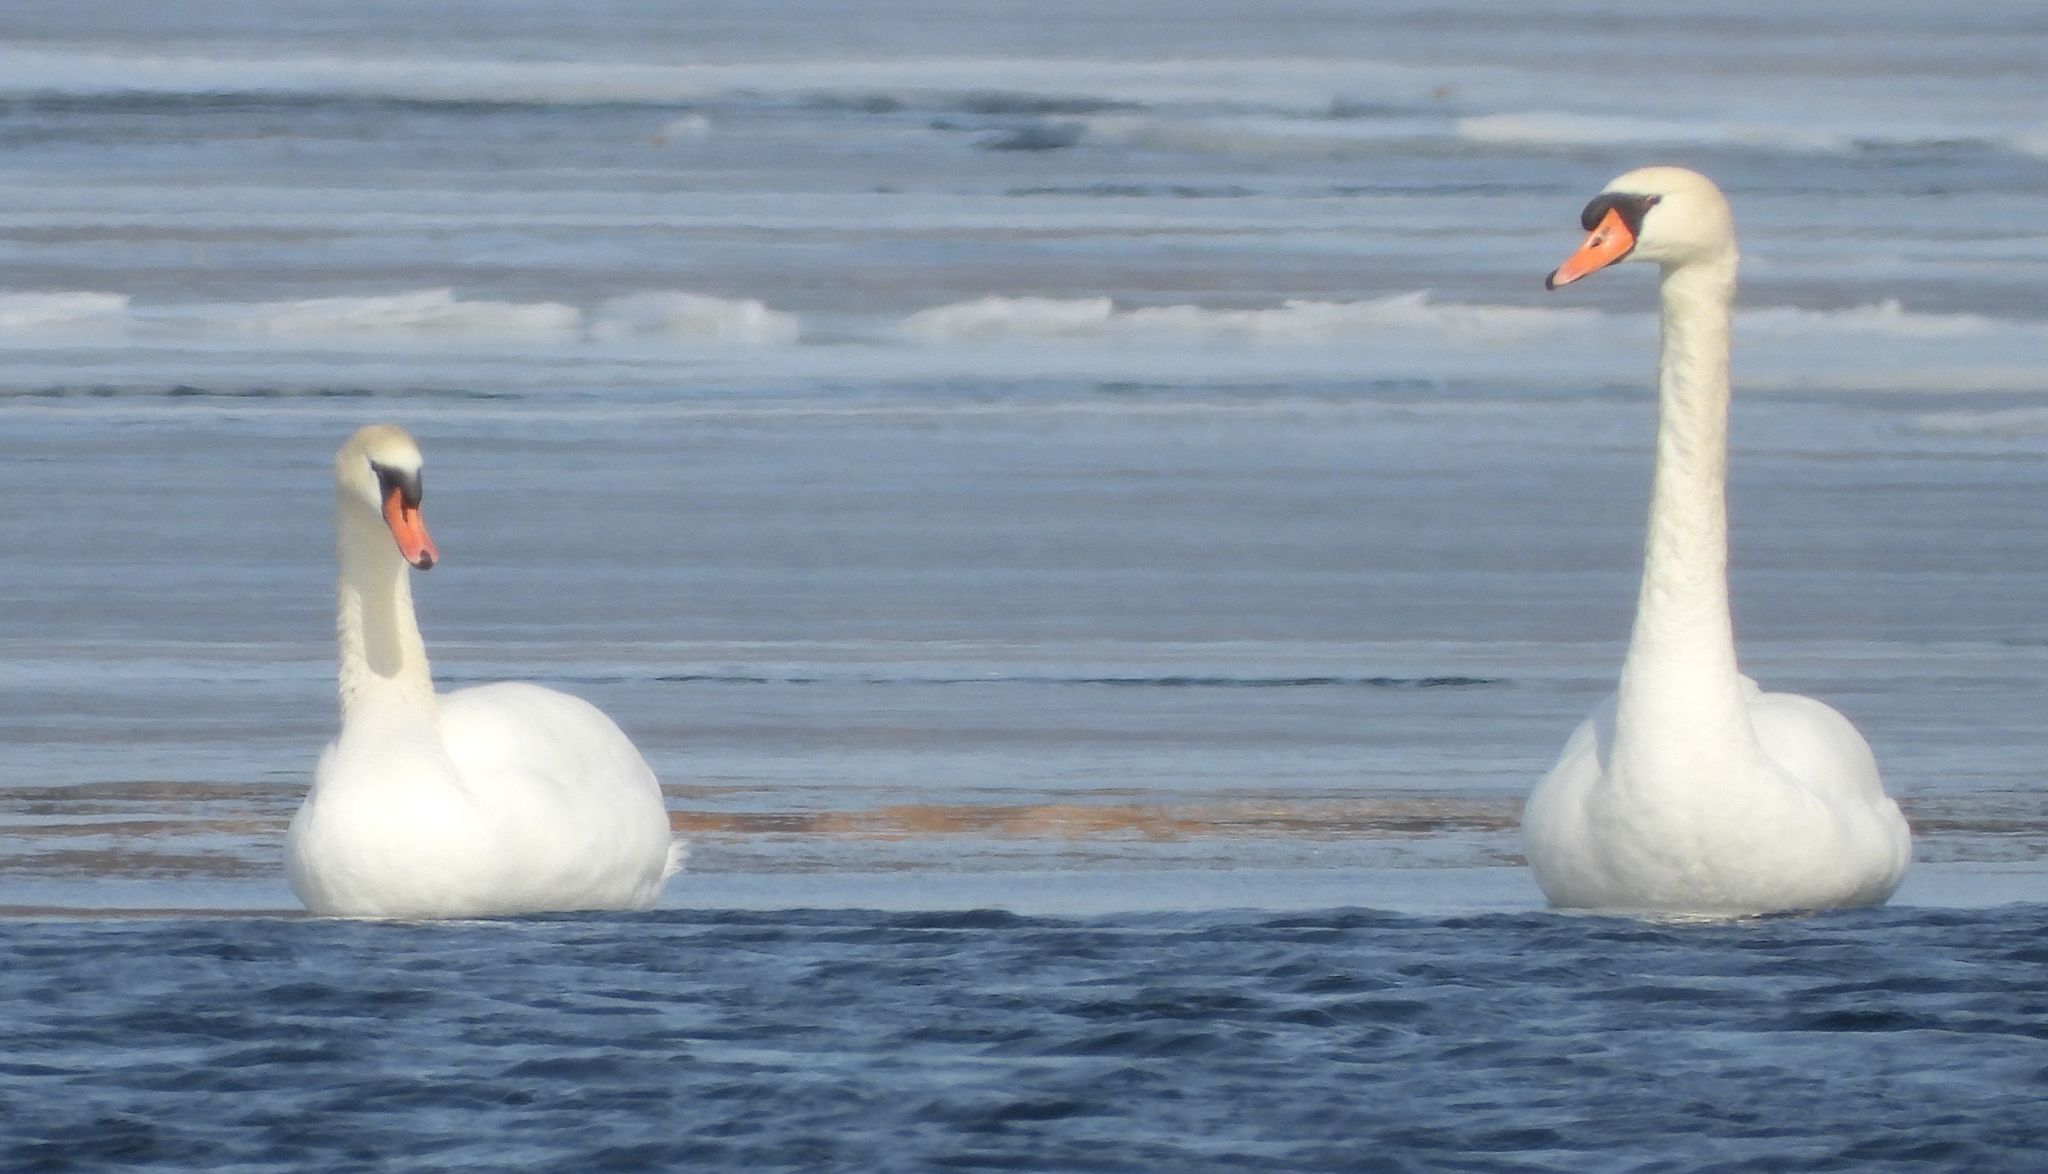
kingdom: Animalia
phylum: Chordata
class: Aves
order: Anseriformes
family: Anatidae
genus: Cygnus
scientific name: Cygnus olor
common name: Mute swan
